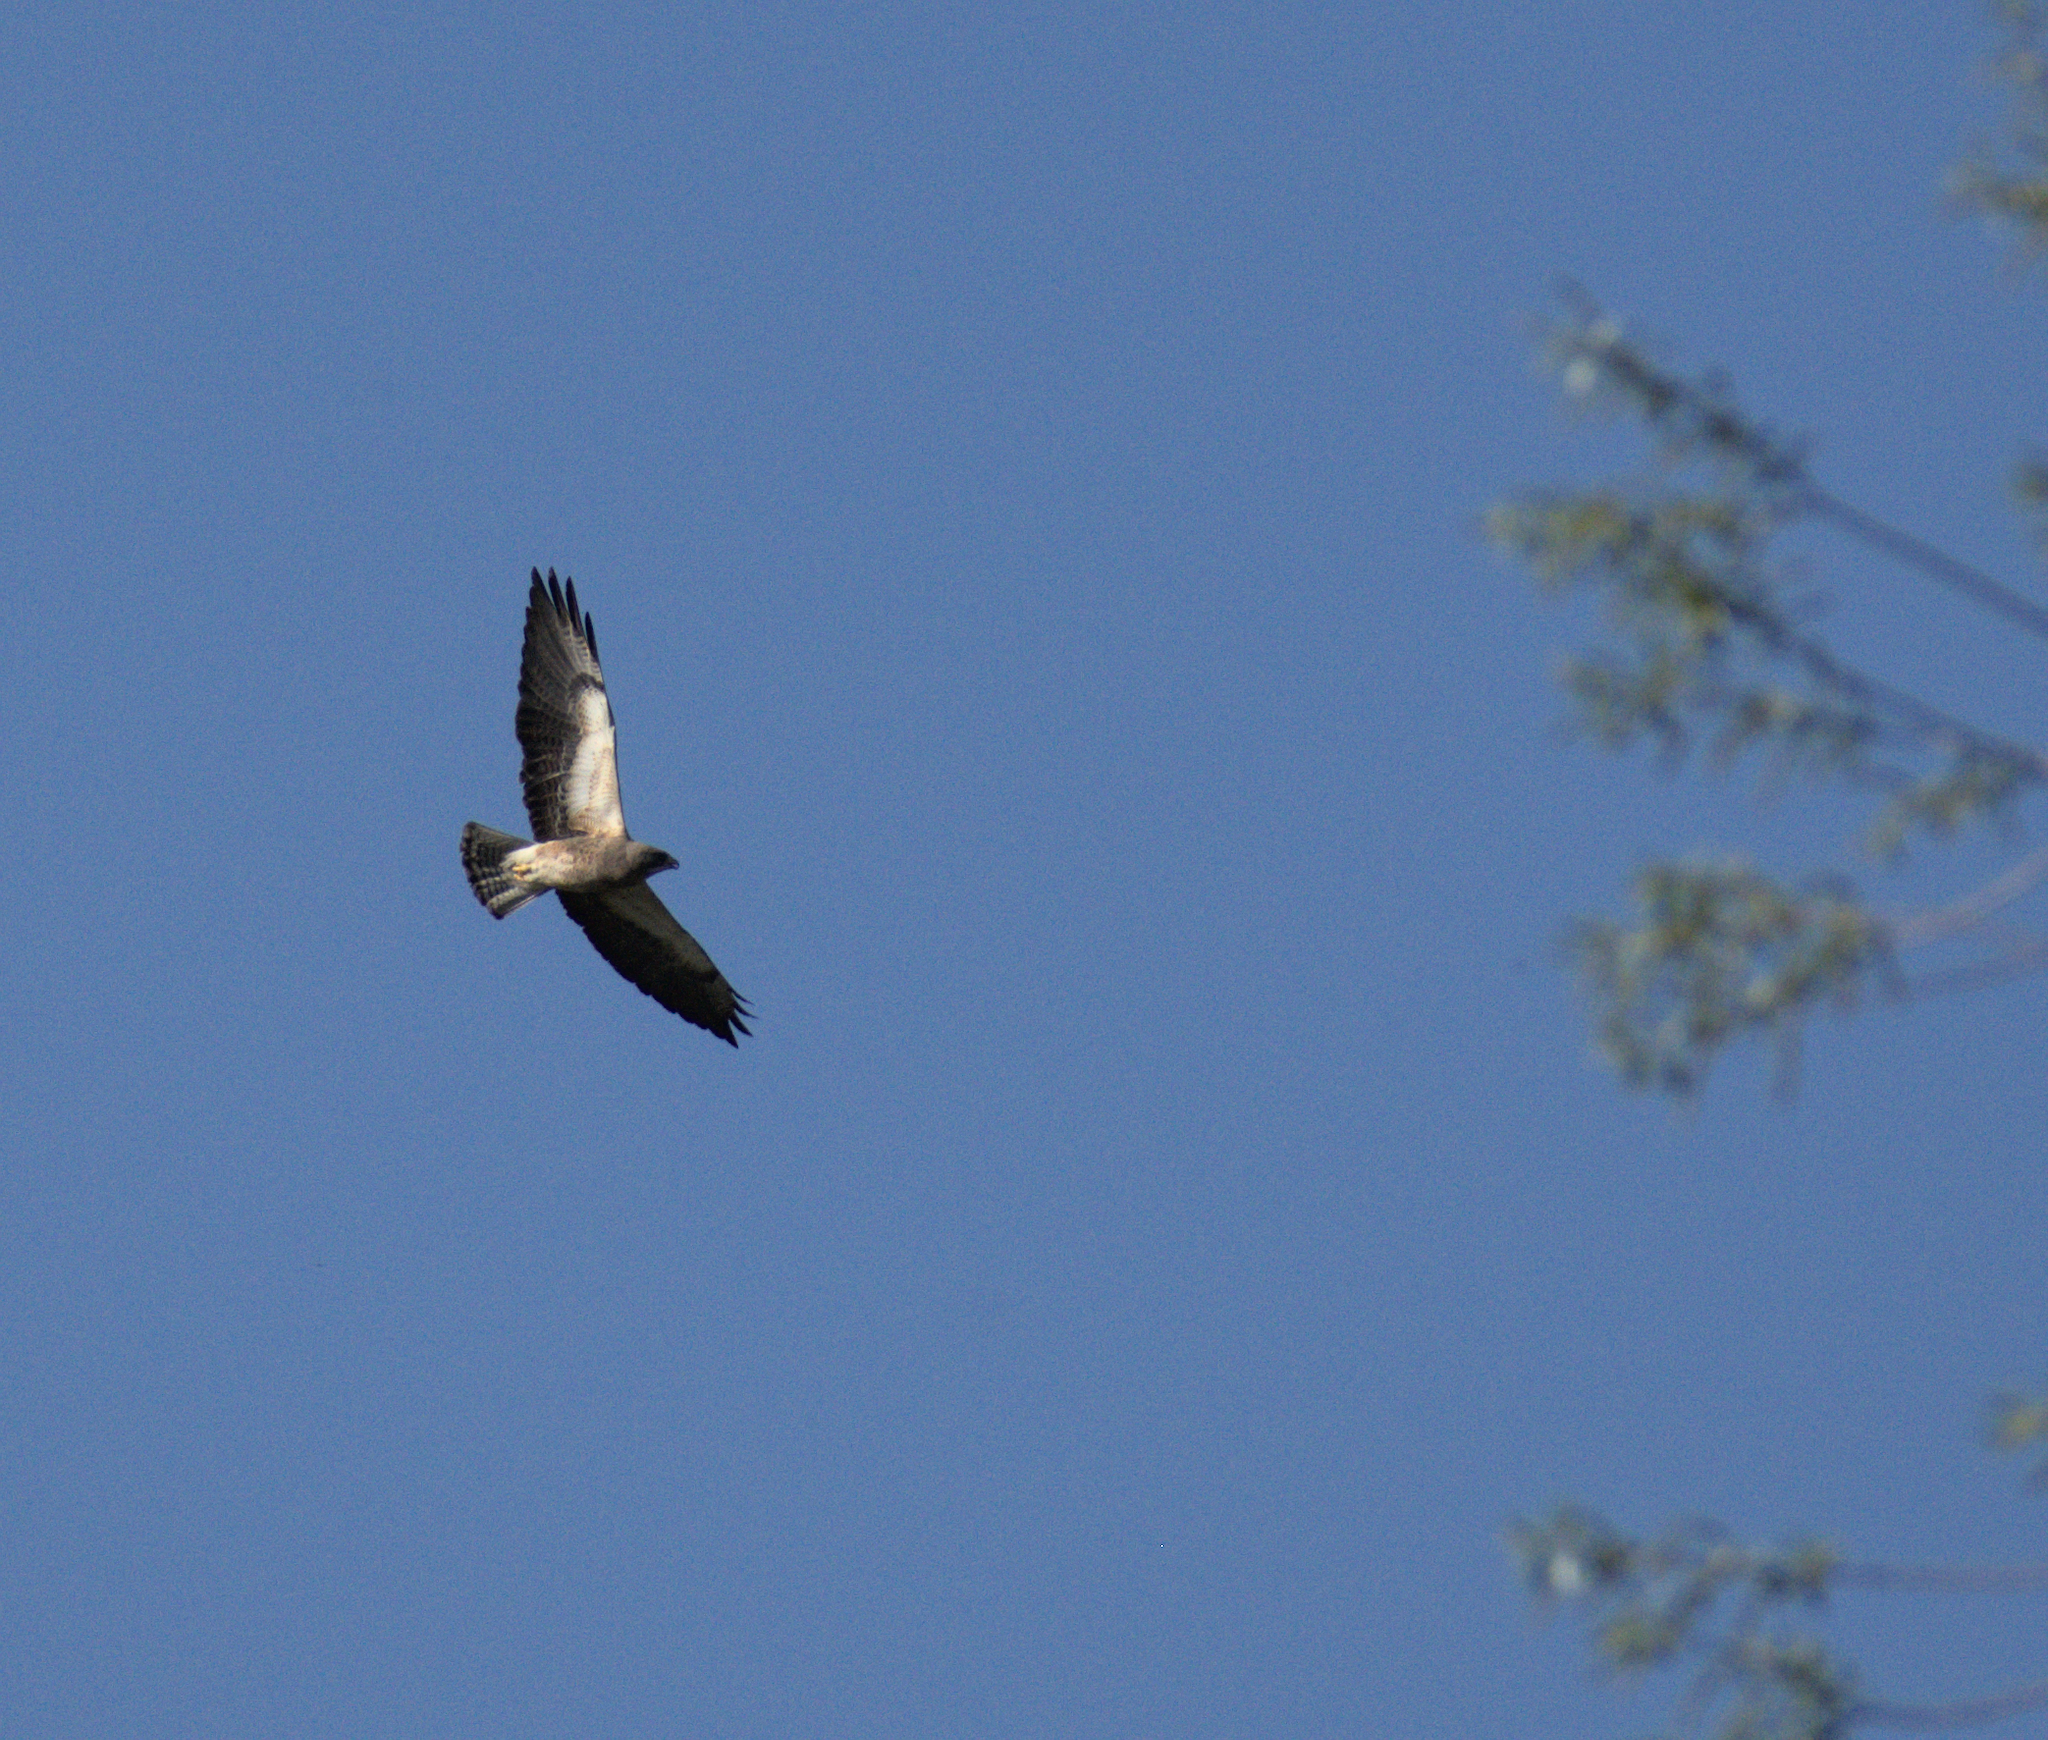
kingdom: Animalia
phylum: Chordata
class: Aves
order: Accipitriformes
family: Accipitridae
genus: Buteo
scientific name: Buteo swainsoni
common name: Swainson's hawk
